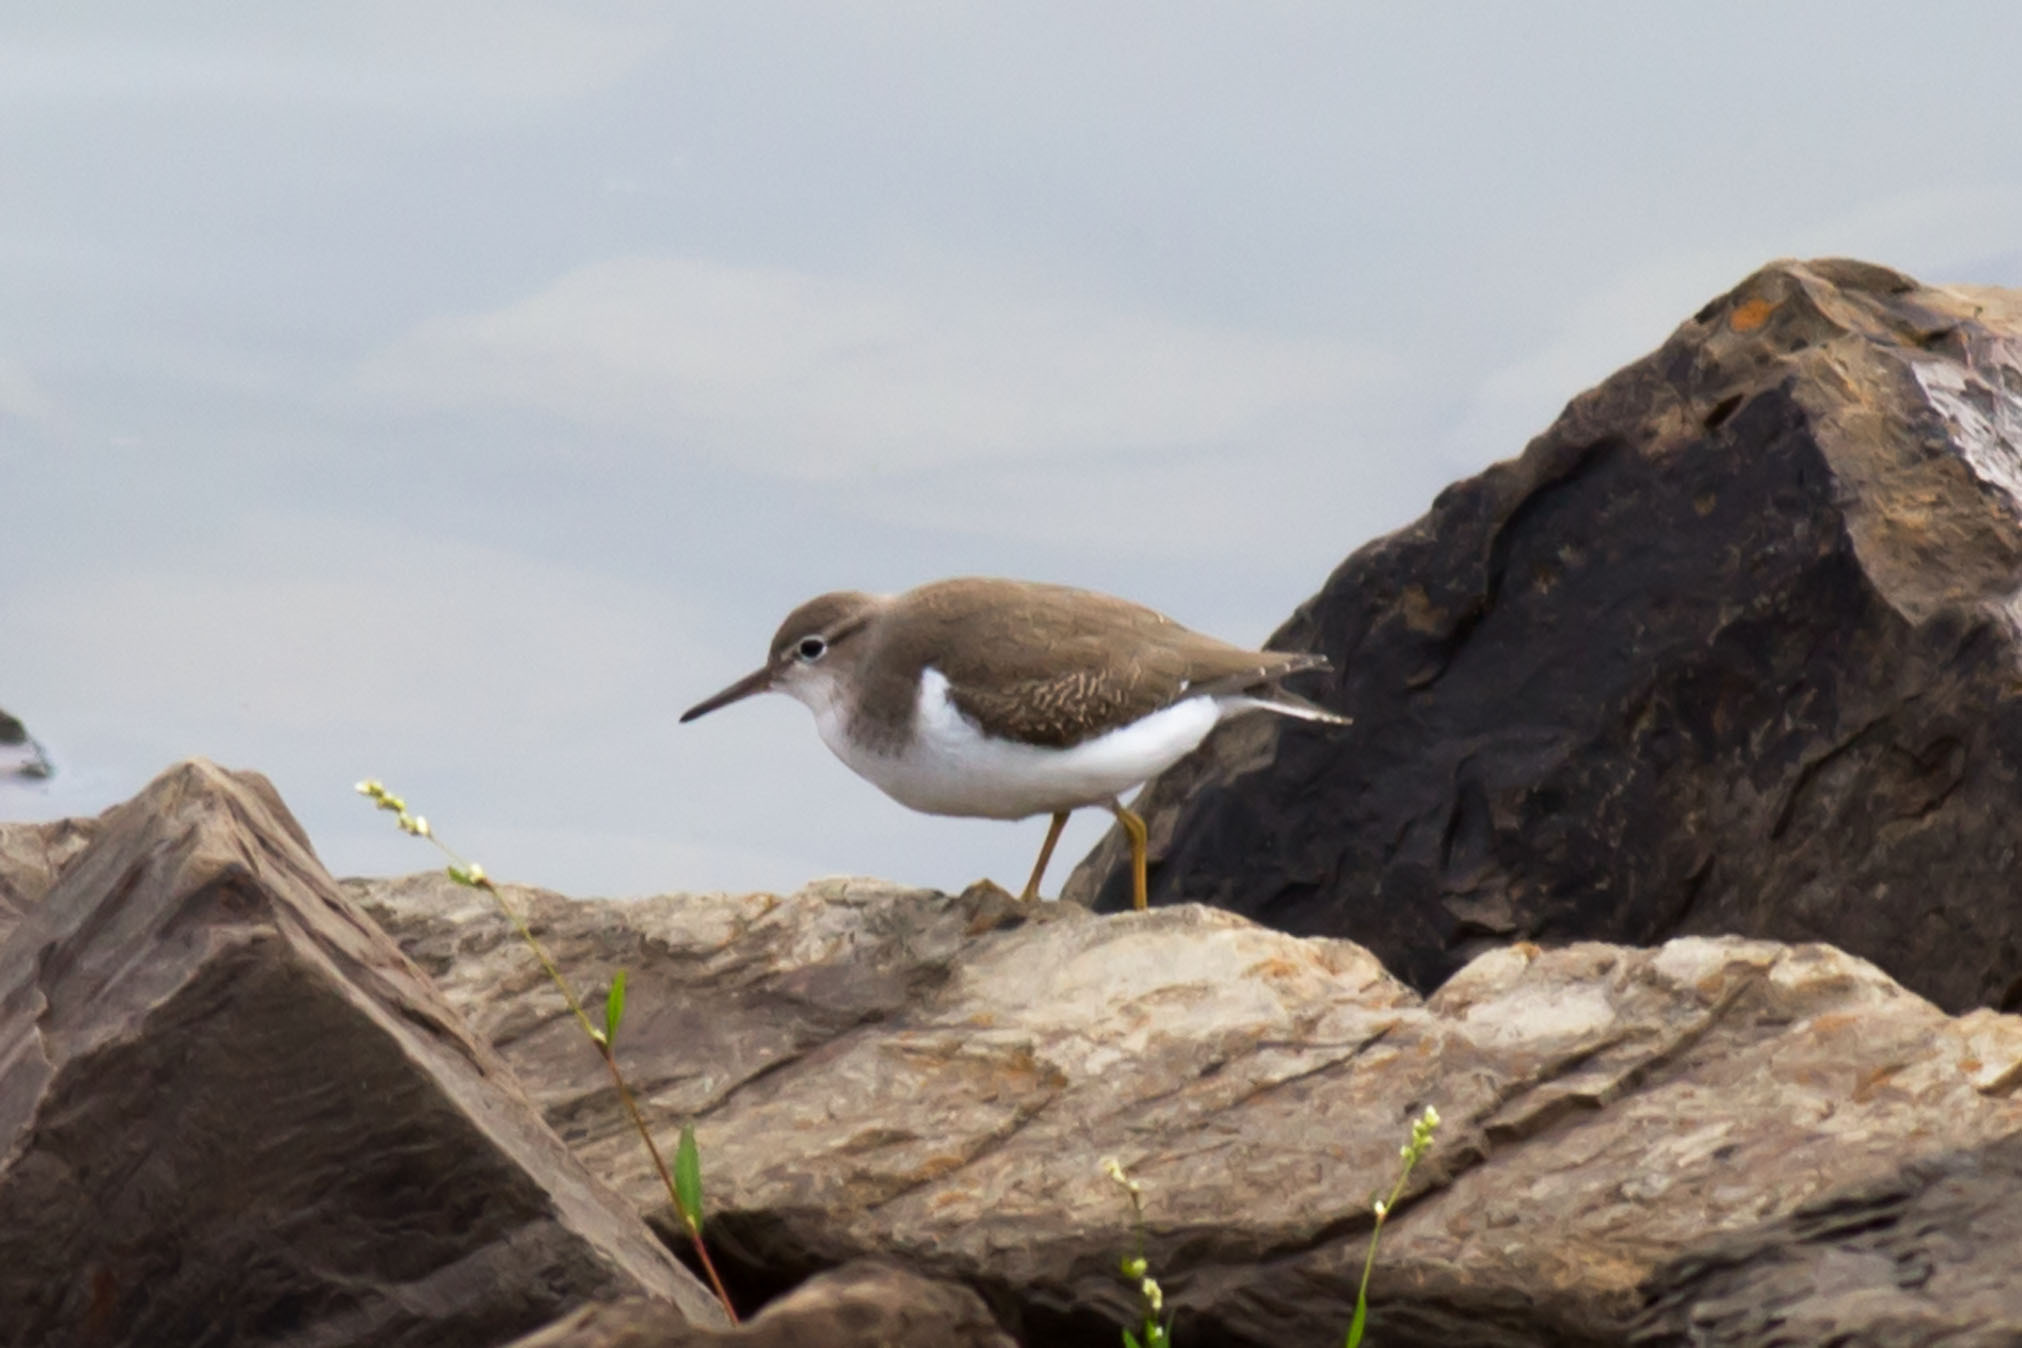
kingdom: Animalia
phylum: Chordata
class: Aves
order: Charadriiformes
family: Scolopacidae
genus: Actitis
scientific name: Actitis macularius
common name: Spotted sandpiper
